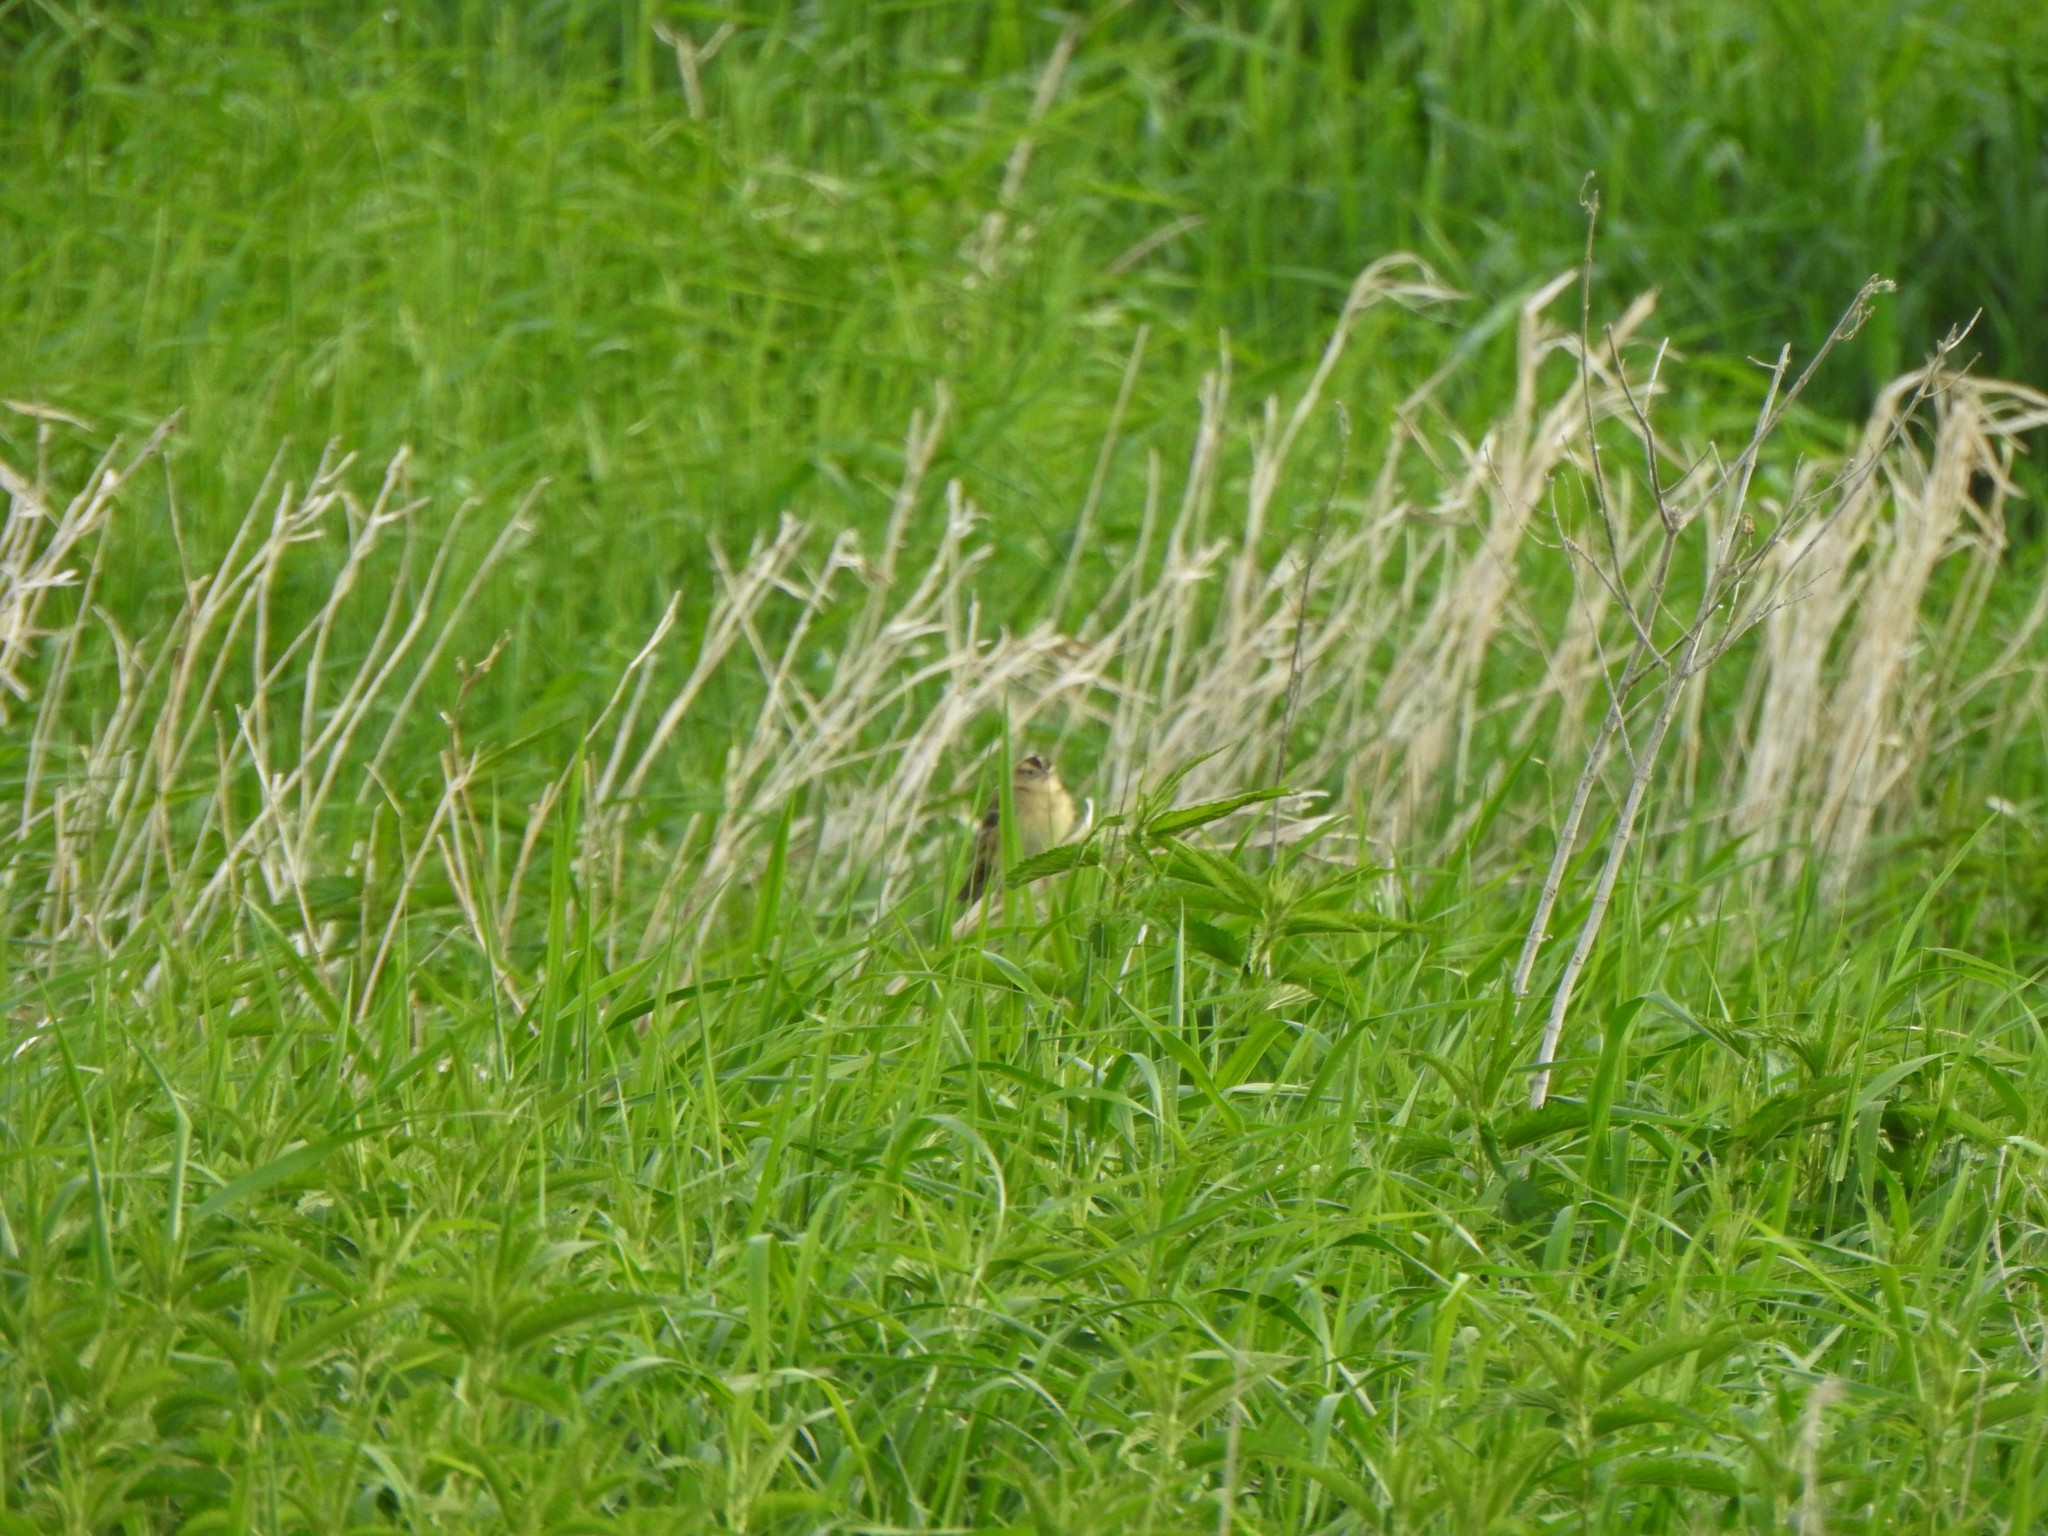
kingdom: Animalia
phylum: Chordata
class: Aves
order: Passeriformes
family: Icteridae
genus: Dolichonyx
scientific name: Dolichonyx oryzivorus
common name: Bobolink
